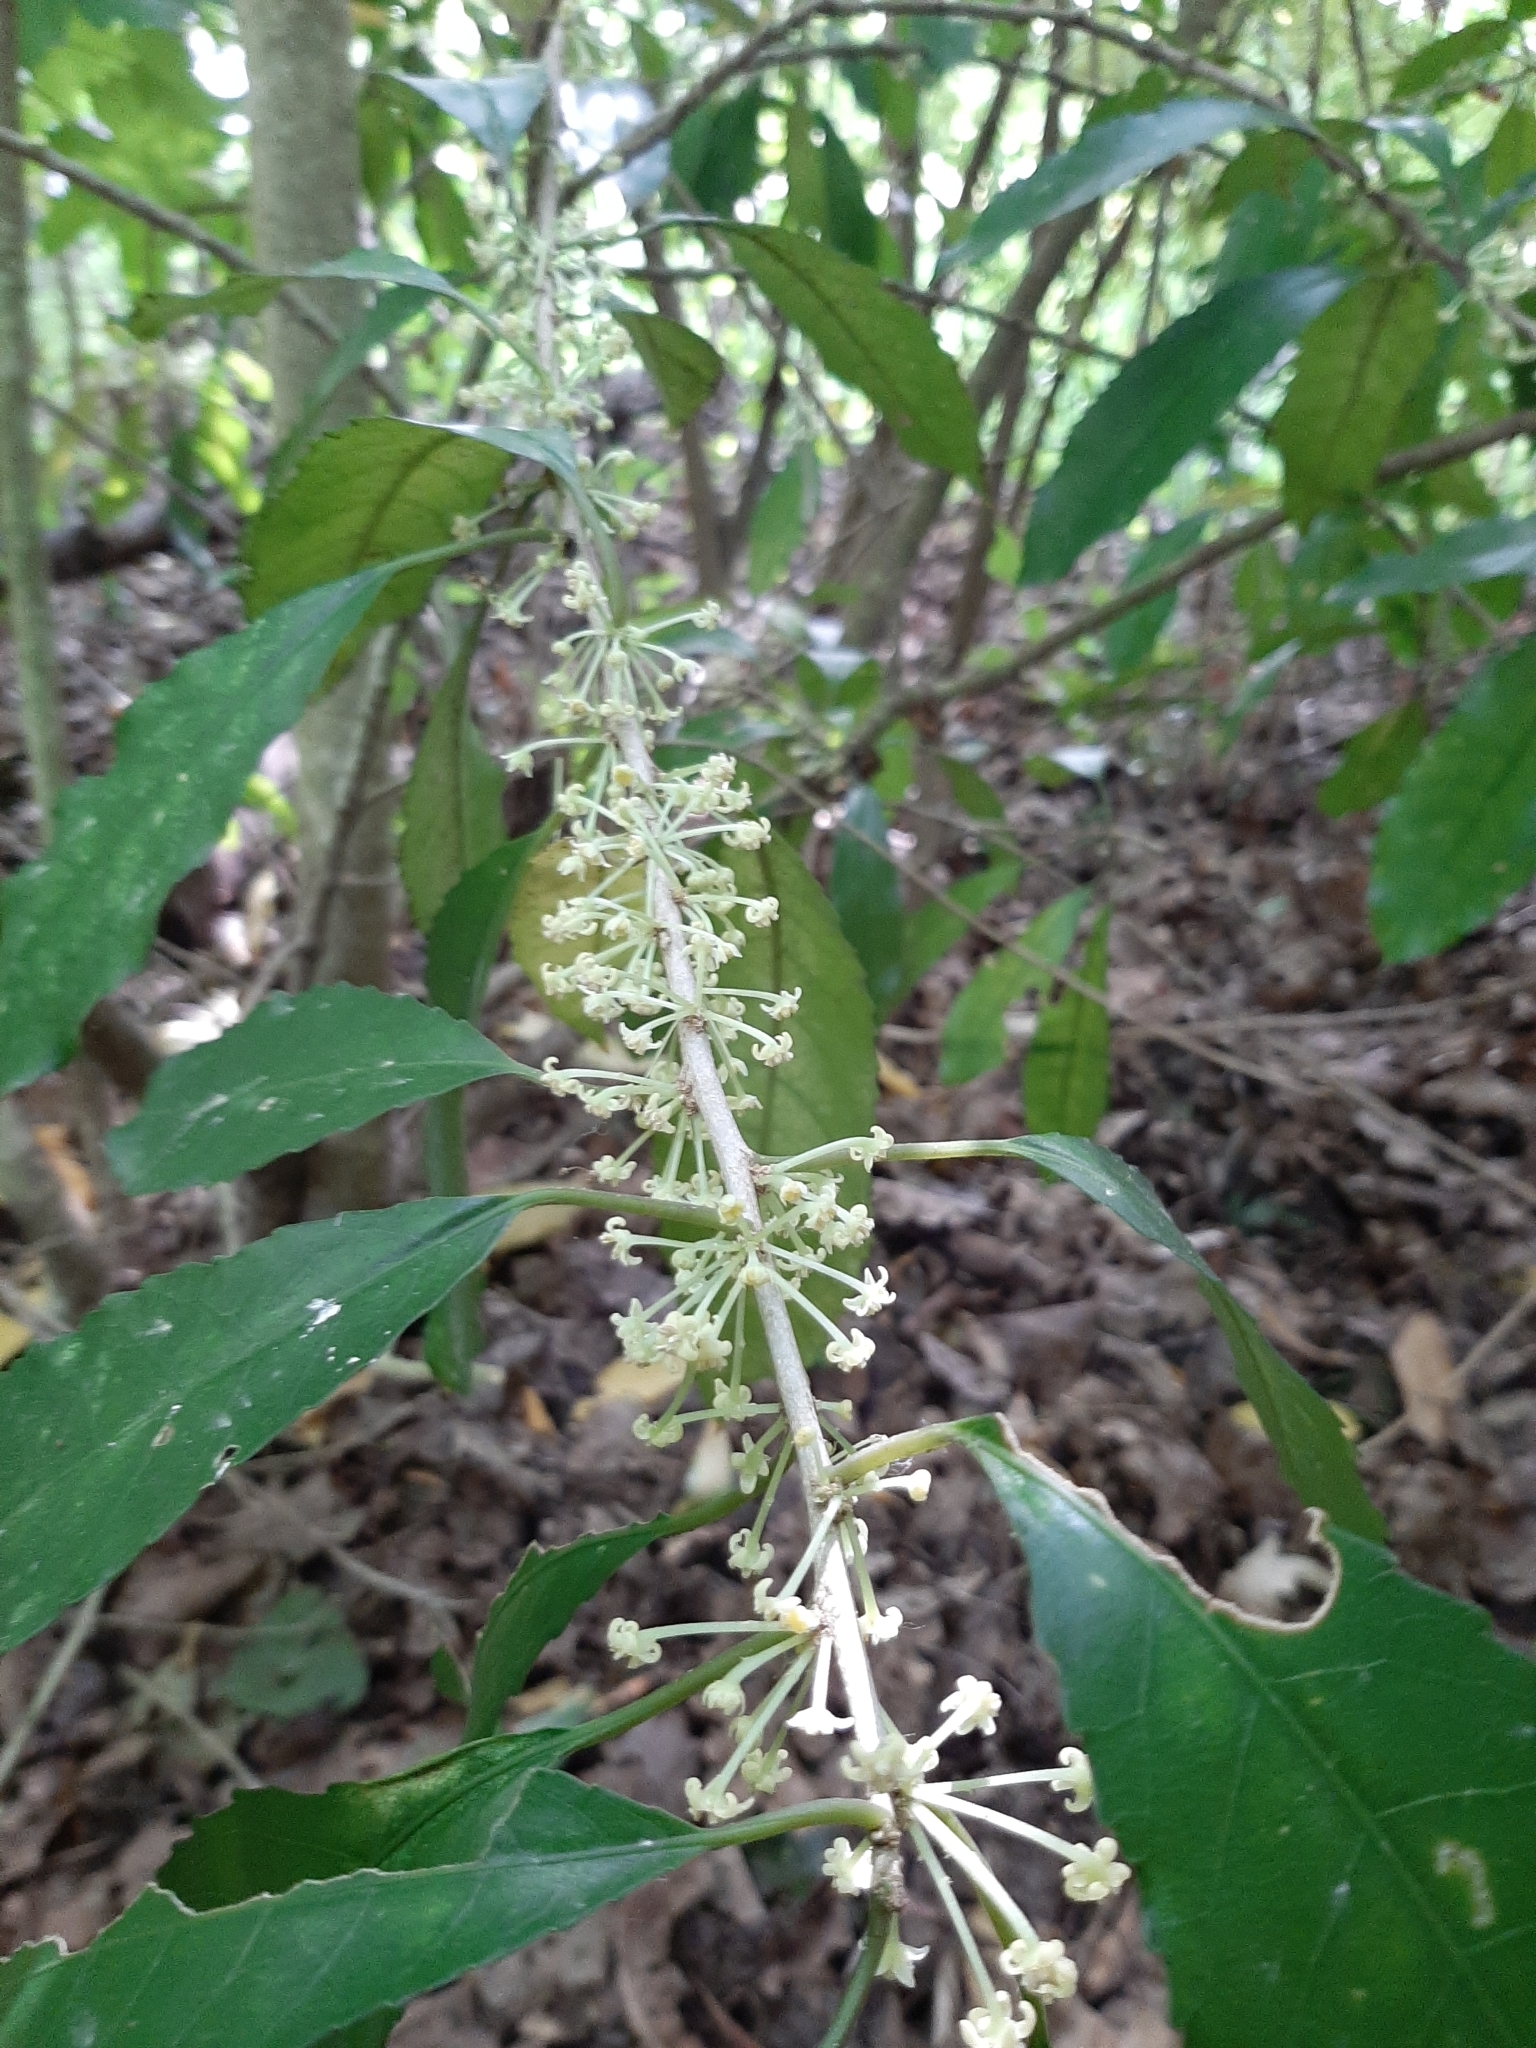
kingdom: Plantae
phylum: Tracheophyta
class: Magnoliopsida
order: Malpighiales
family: Violaceae
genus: Melicytus
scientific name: Melicytus ramiflorus
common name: Mahoe
